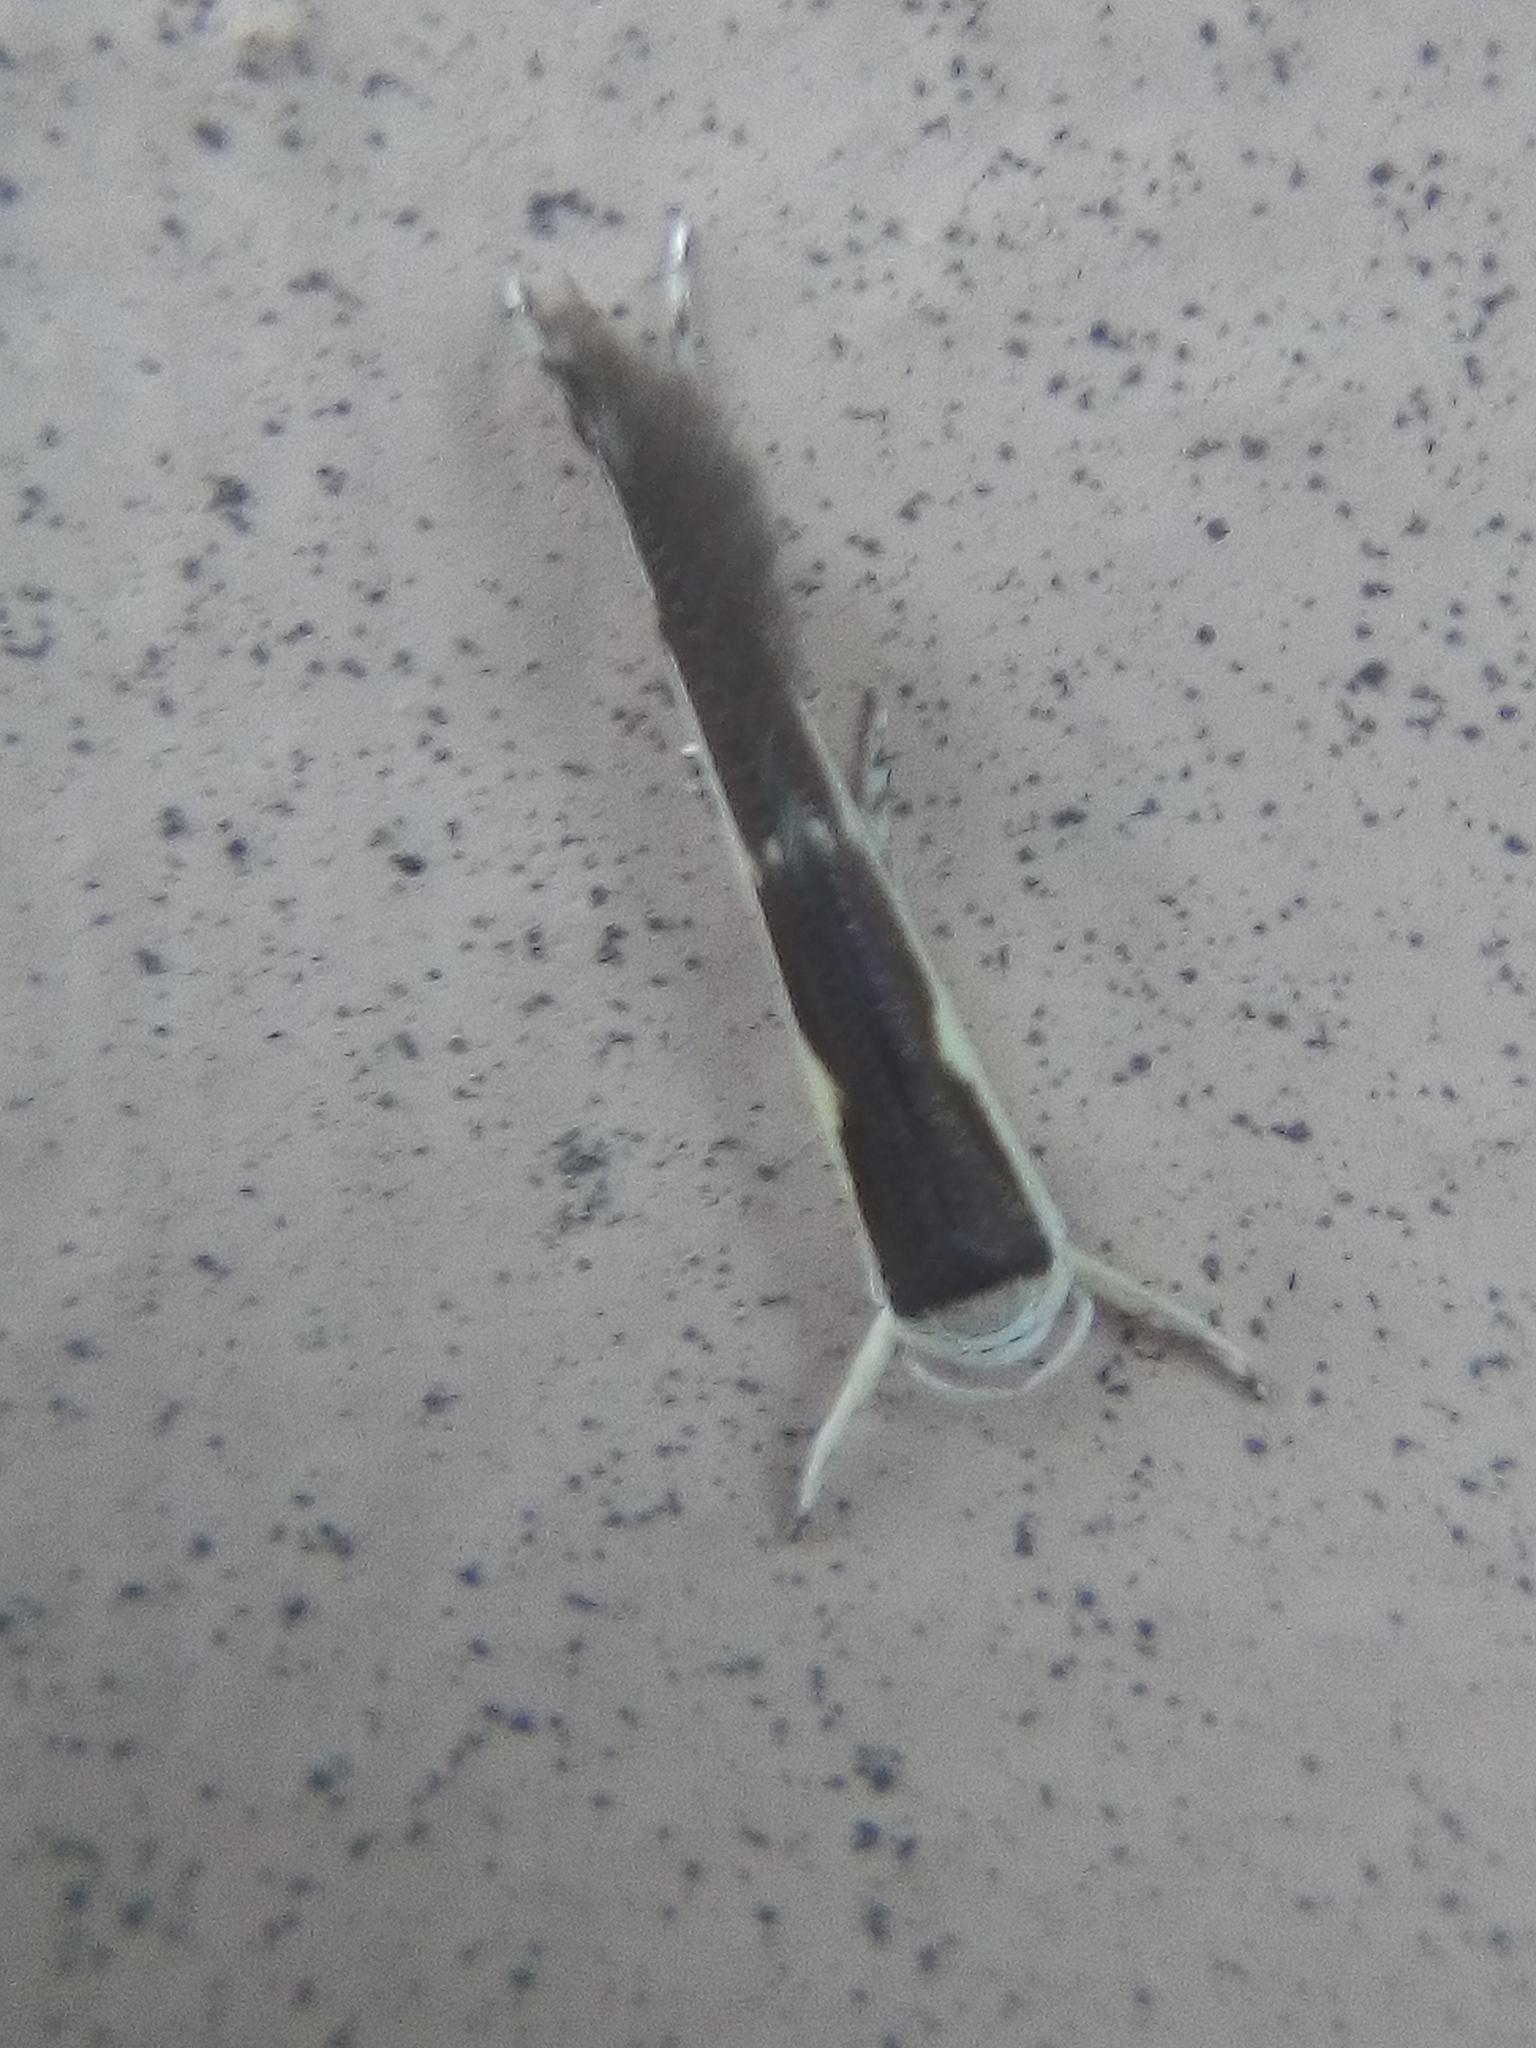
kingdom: Animalia
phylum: Arthropoda
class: Insecta
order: Lepidoptera
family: Roeslerstammiidae
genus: Vanicela
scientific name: Vanicela disjunctella
